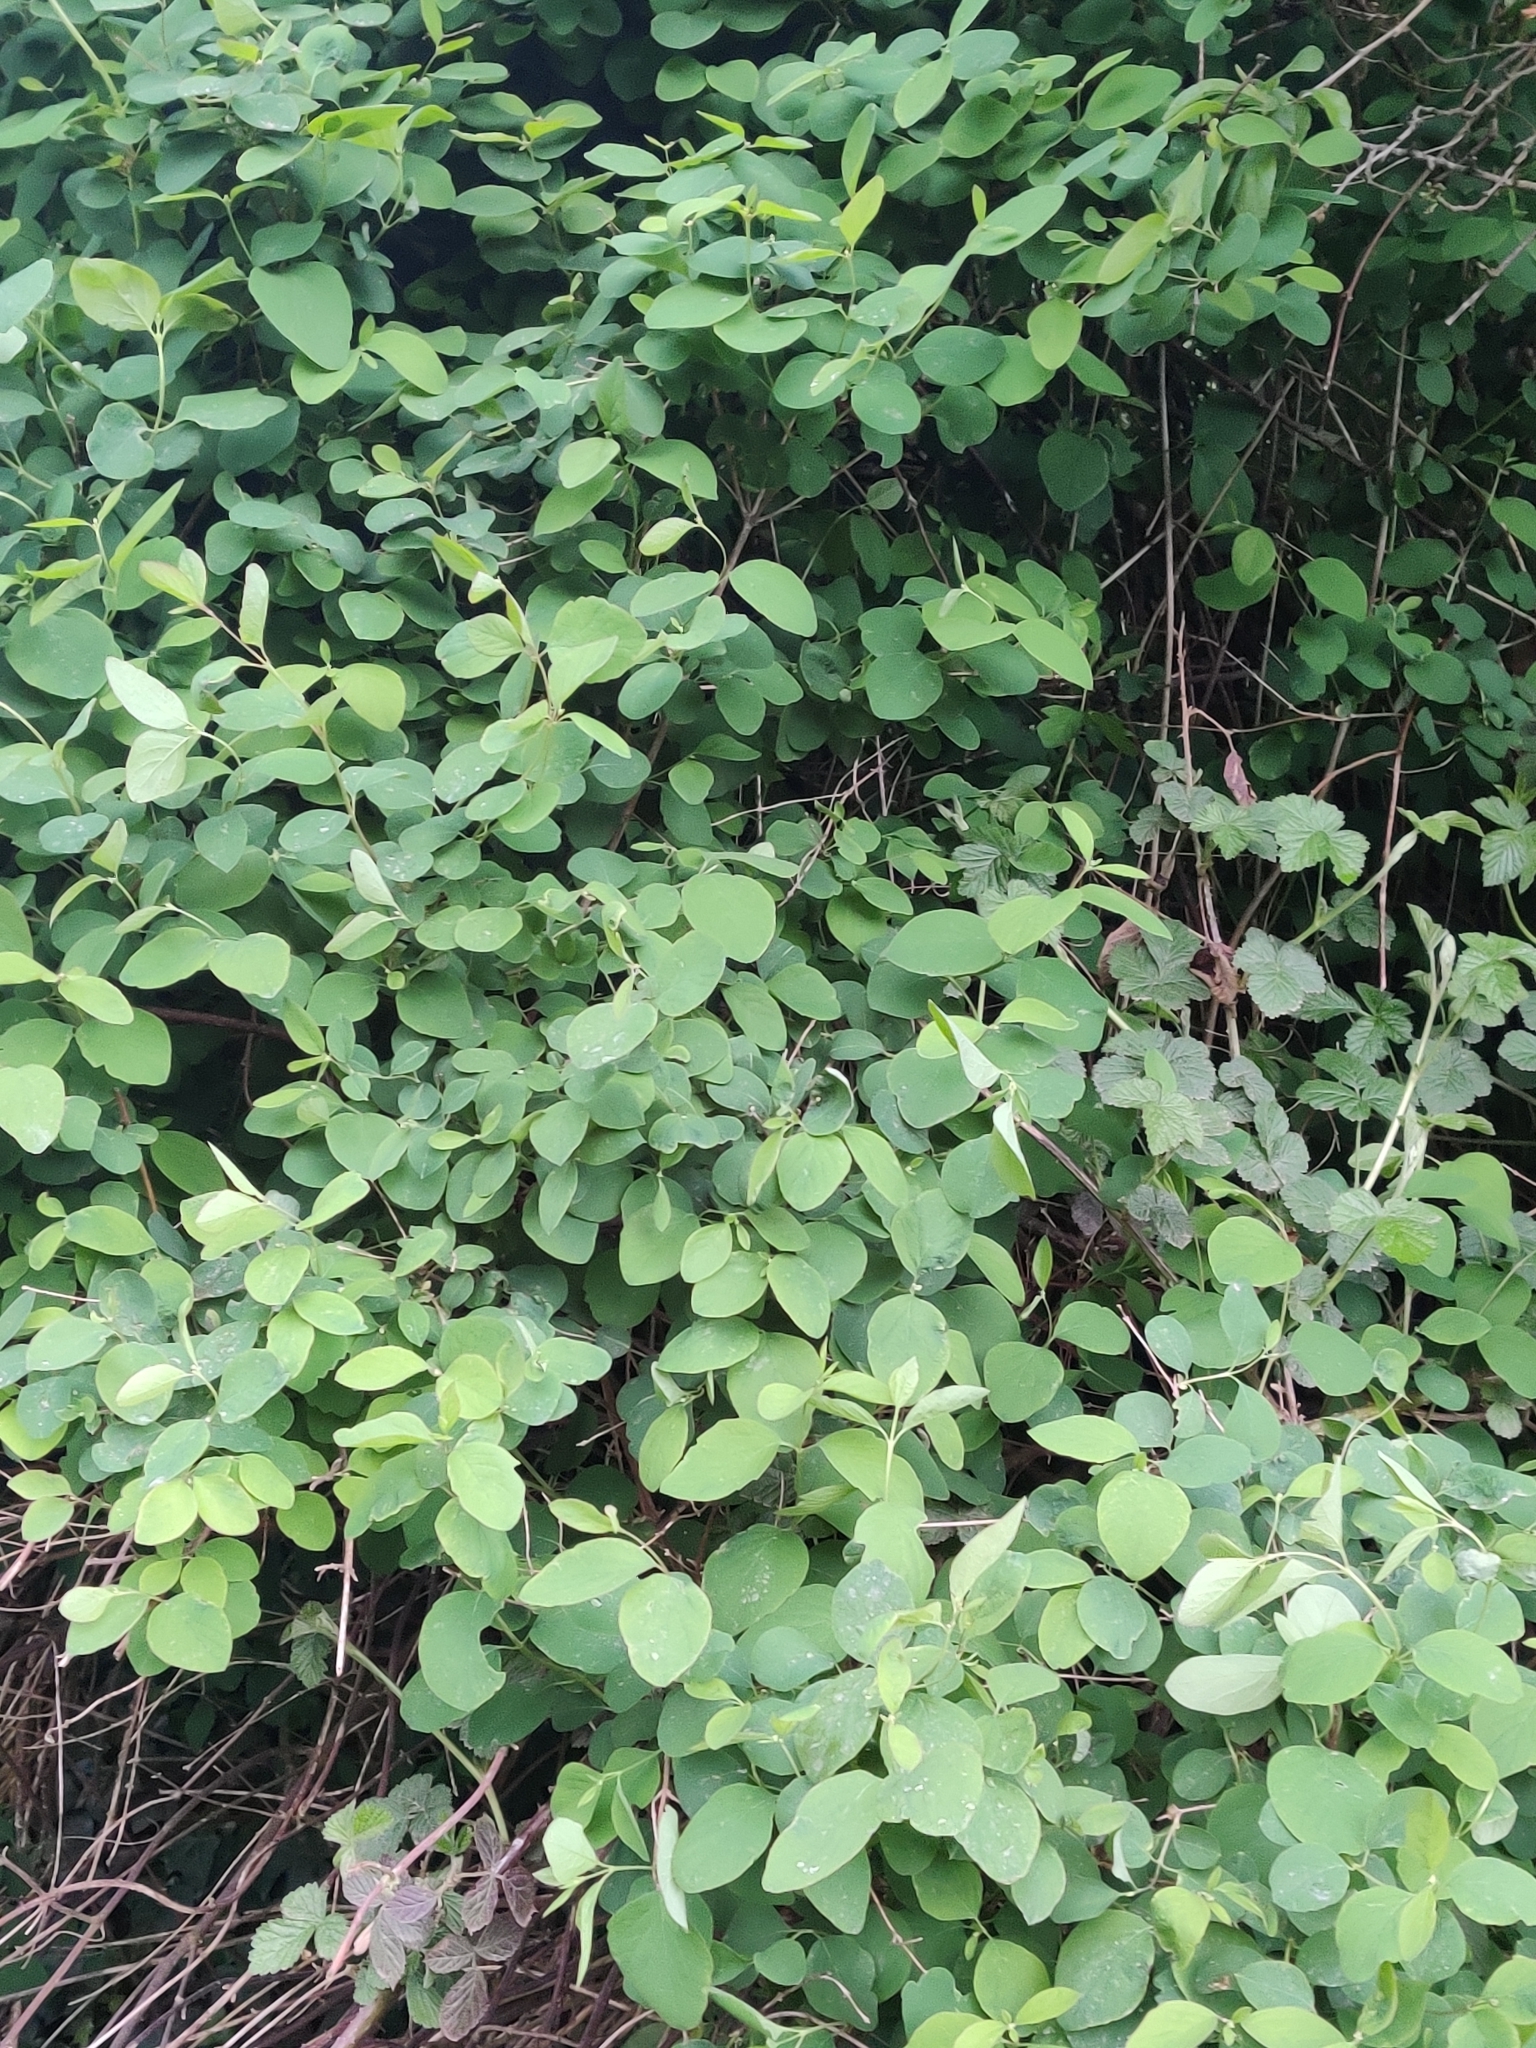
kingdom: Plantae
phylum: Tracheophyta
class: Magnoliopsida
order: Dipsacales
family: Caprifoliaceae
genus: Symphoricarpos
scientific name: Symphoricarpos albus
